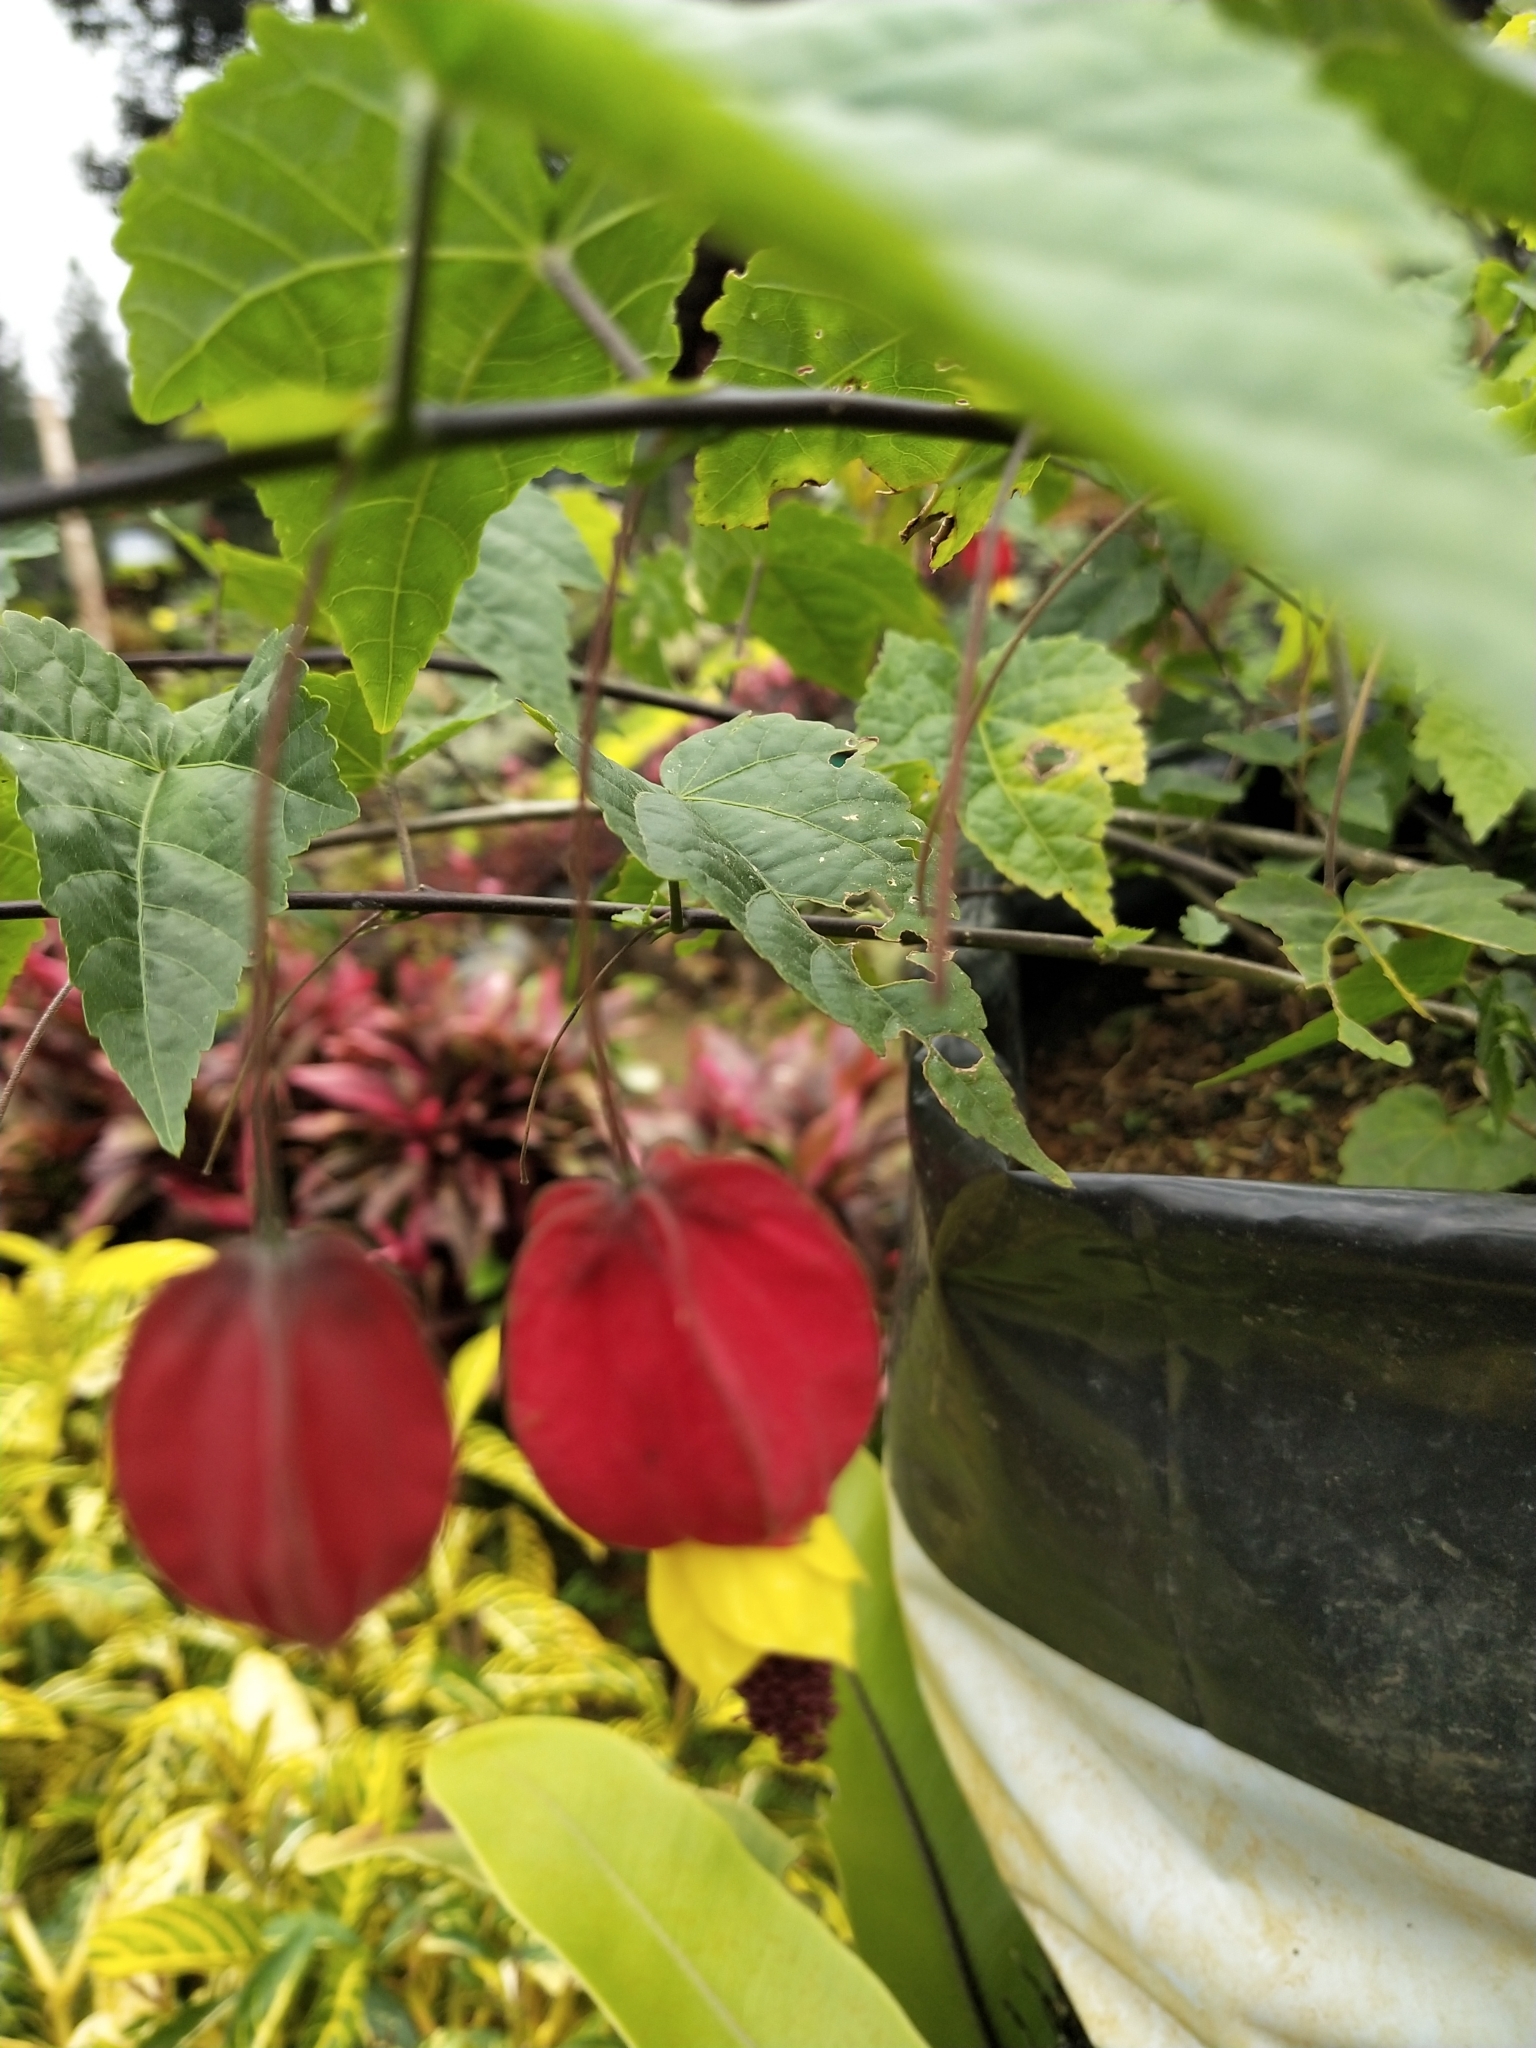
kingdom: Plantae
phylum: Tracheophyta
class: Magnoliopsida
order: Malvales
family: Malvaceae
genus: Callianthe
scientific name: Callianthe megapotamica
